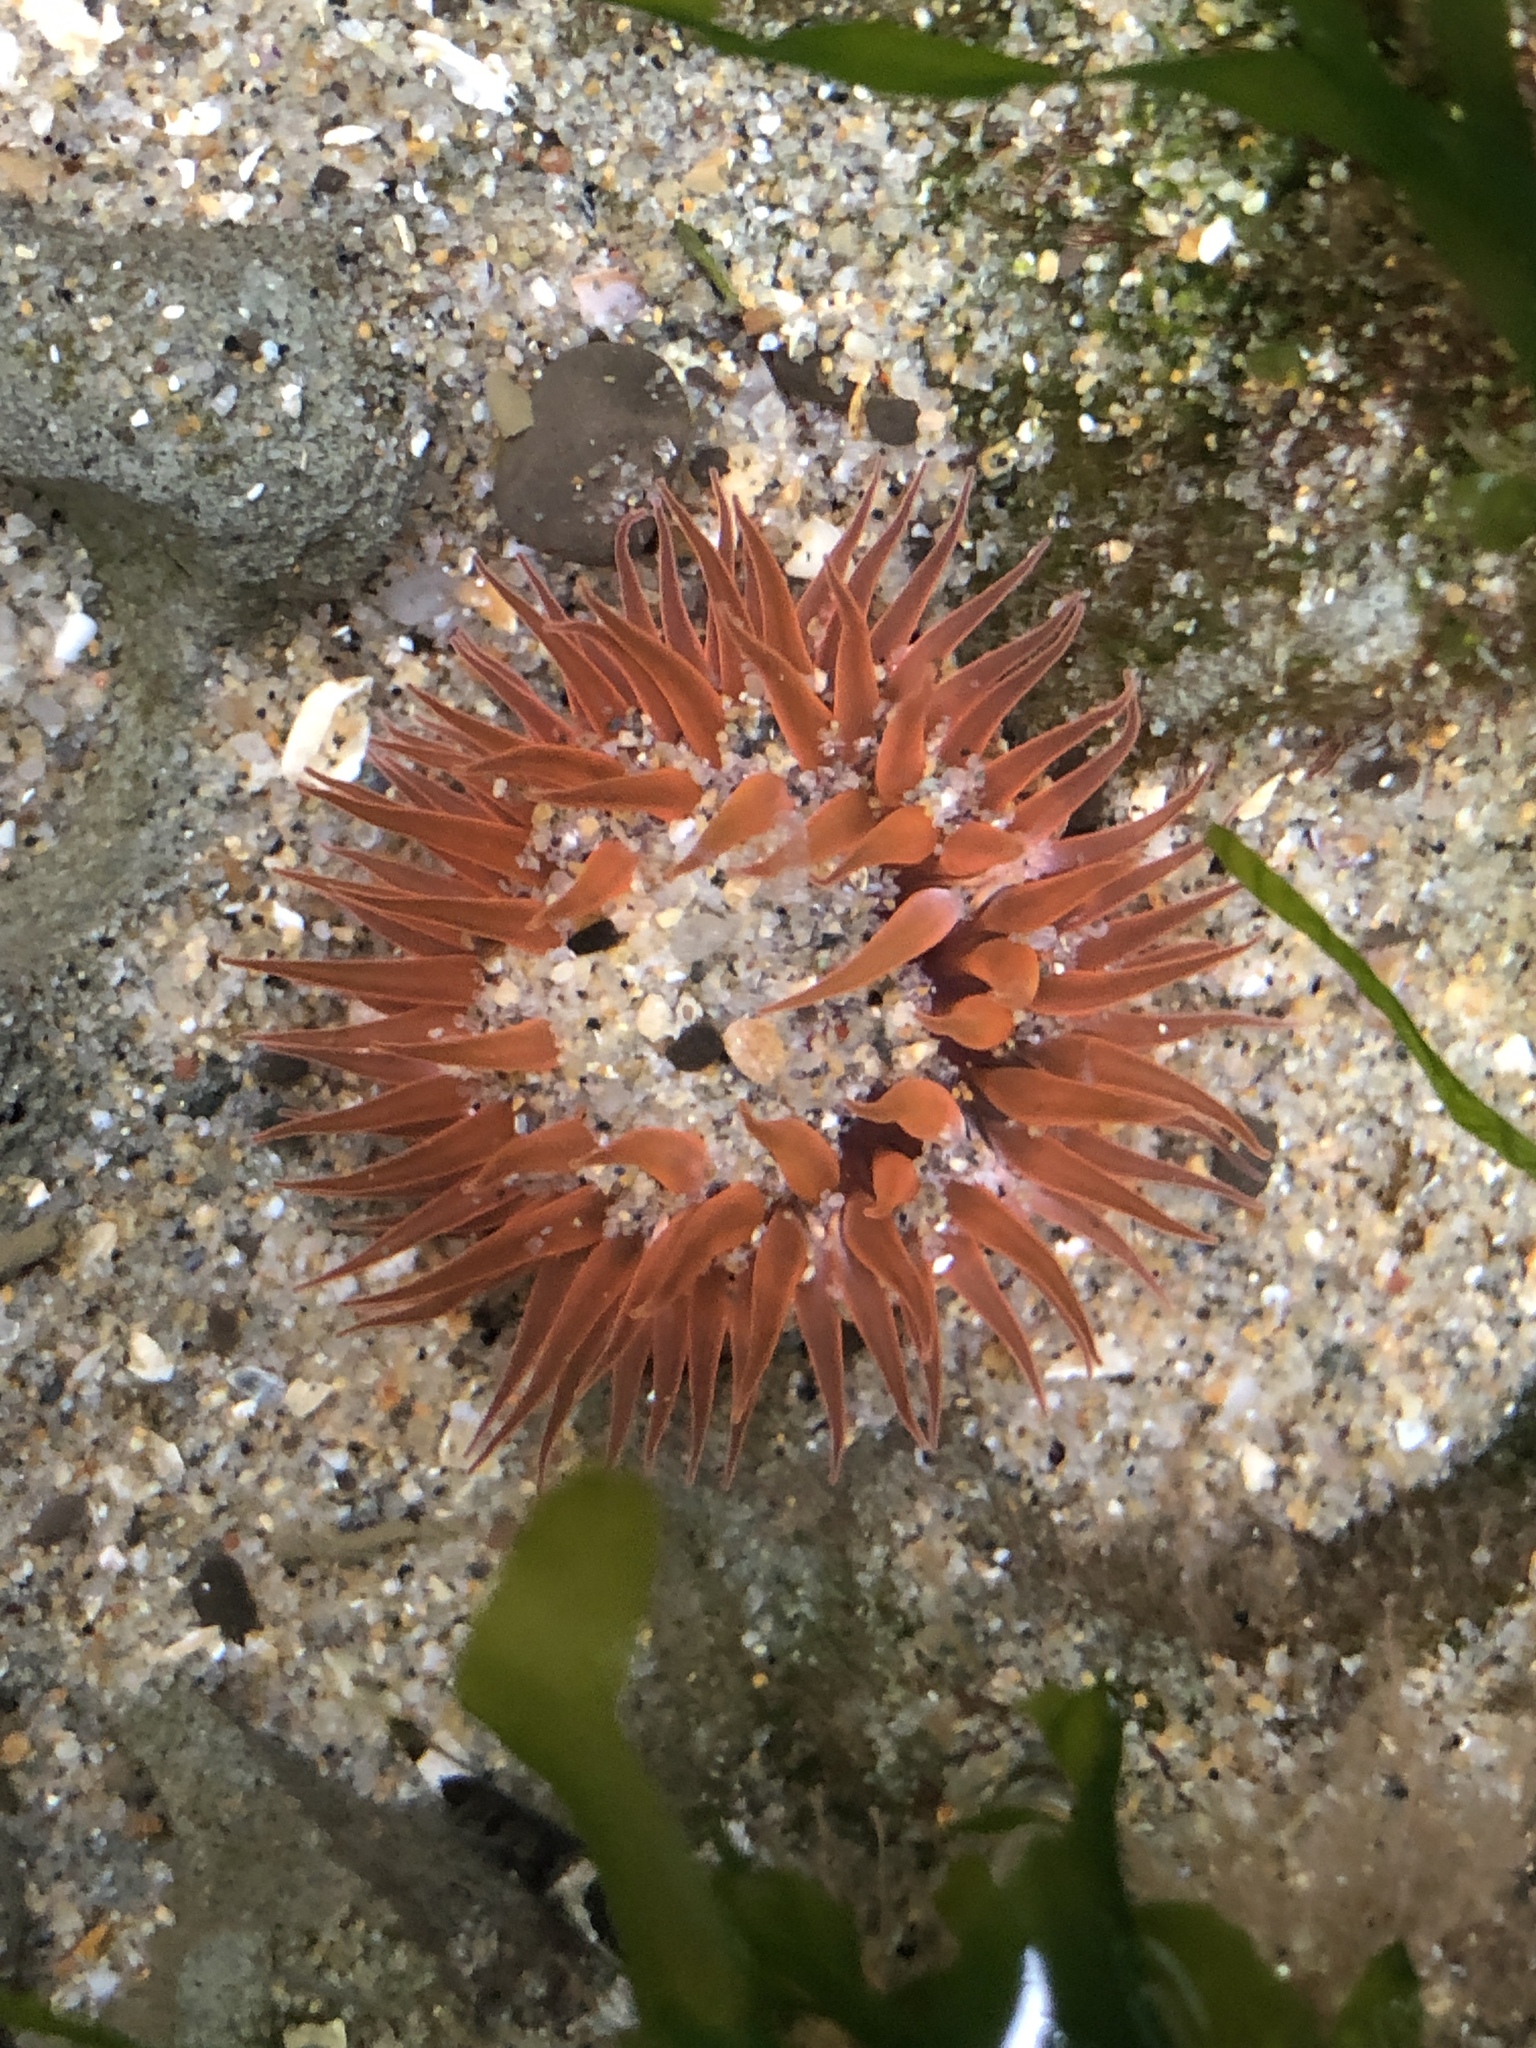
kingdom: Animalia
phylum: Cnidaria
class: Anthozoa
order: Actiniaria
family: Actiniidae
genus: Anthopleura
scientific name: Anthopleura artemisia
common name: Buried sea anemone
